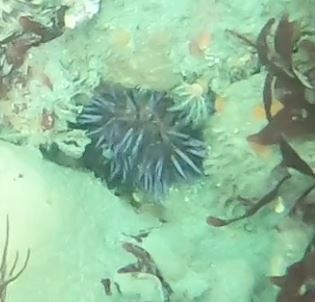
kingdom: Animalia
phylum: Echinodermata
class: Echinoidea
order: Camarodonta
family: Strongylocentrotidae
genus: Strongylocentrotus
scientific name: Strongylocentrotus purpuratus
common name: Purple sea urchin
